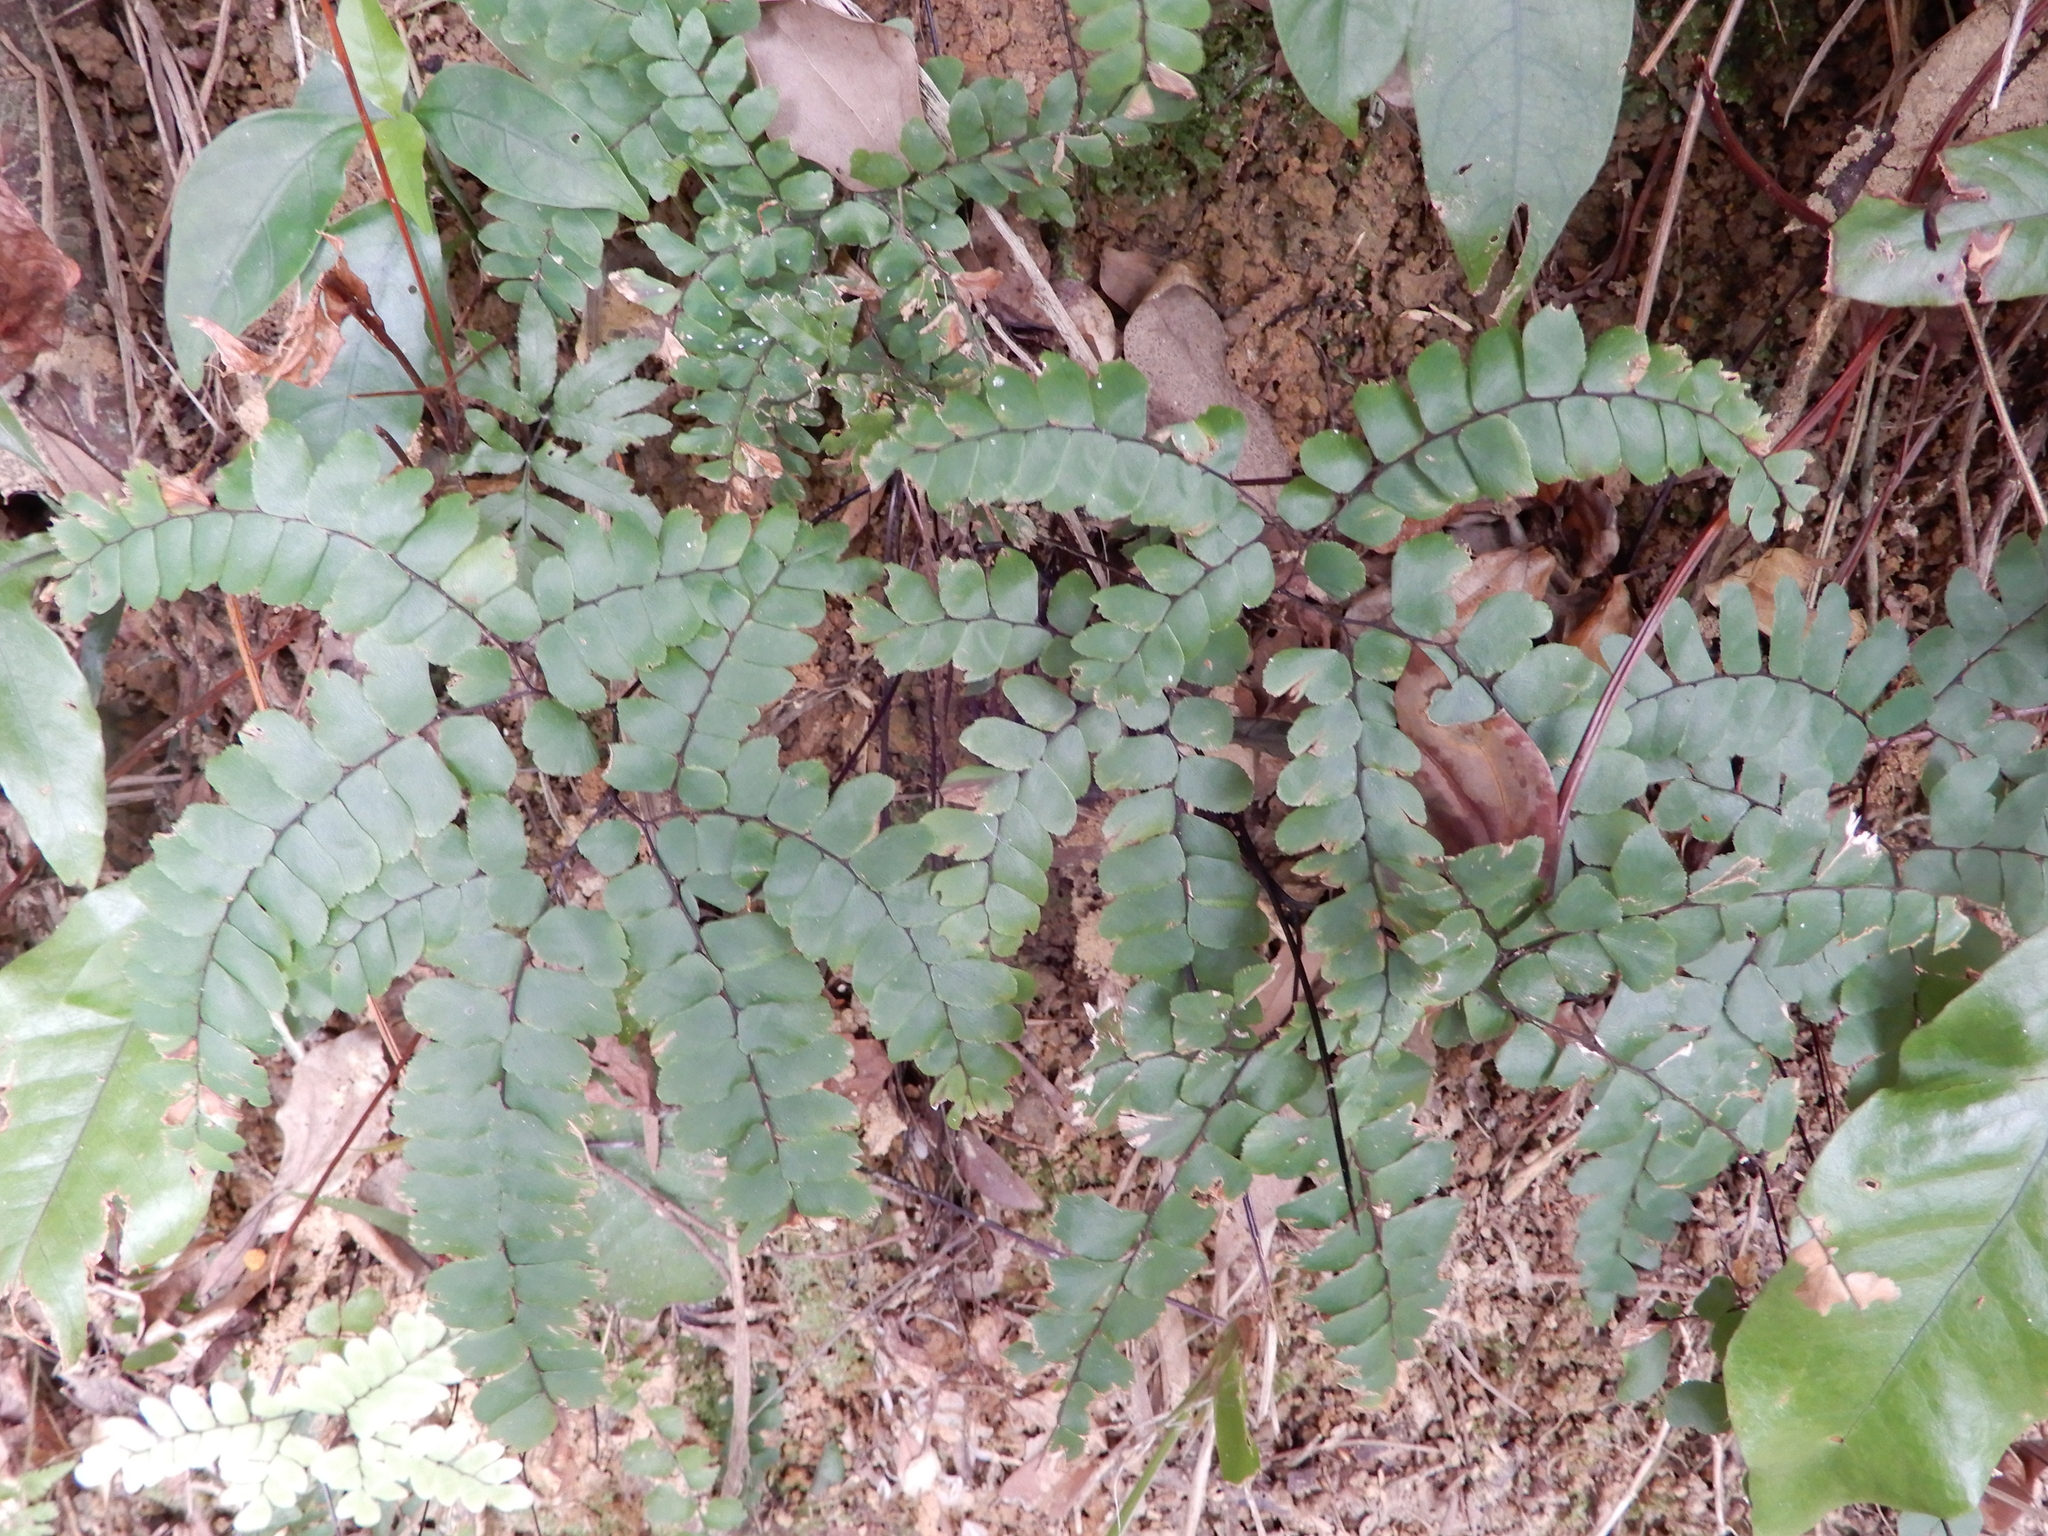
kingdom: Plantae
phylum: Tracheophyta
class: Polypodiopsida
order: Polypodiales
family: Pteridaceae
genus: Adiantum
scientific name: Adiantum flabellulatum
